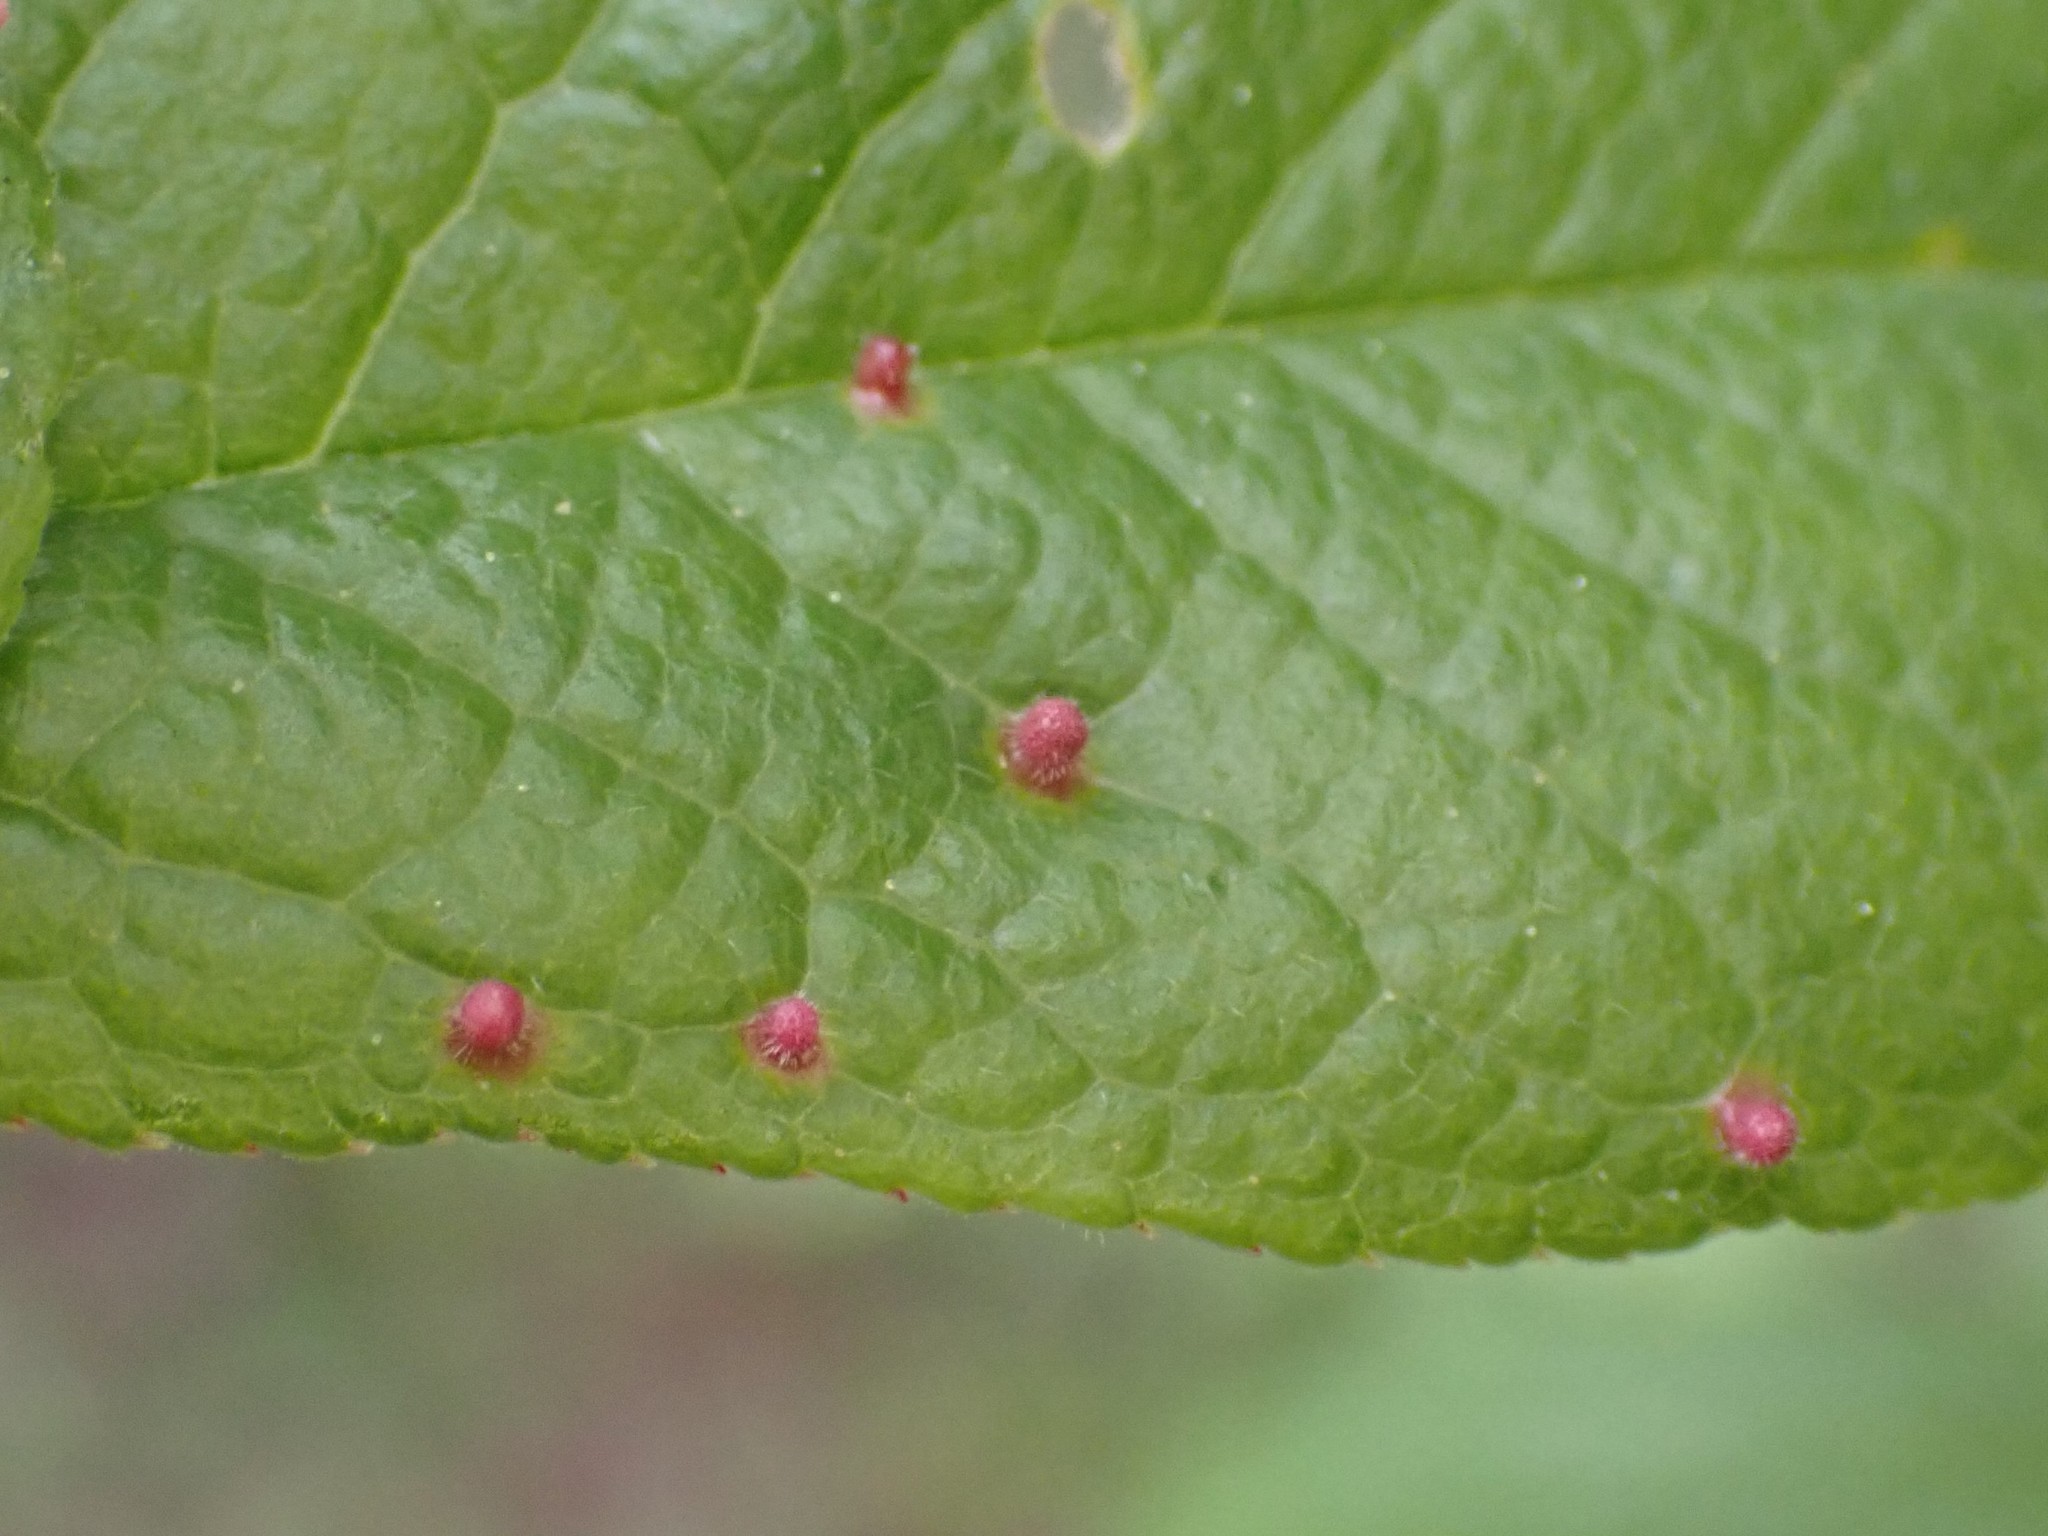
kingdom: Animalia
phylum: Arthropoda
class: Arachnida
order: Trombidiformes
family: Eriophyidae
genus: Eriophyes
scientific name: Eriophyes emarginatae
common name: Plum leaf gall mite
